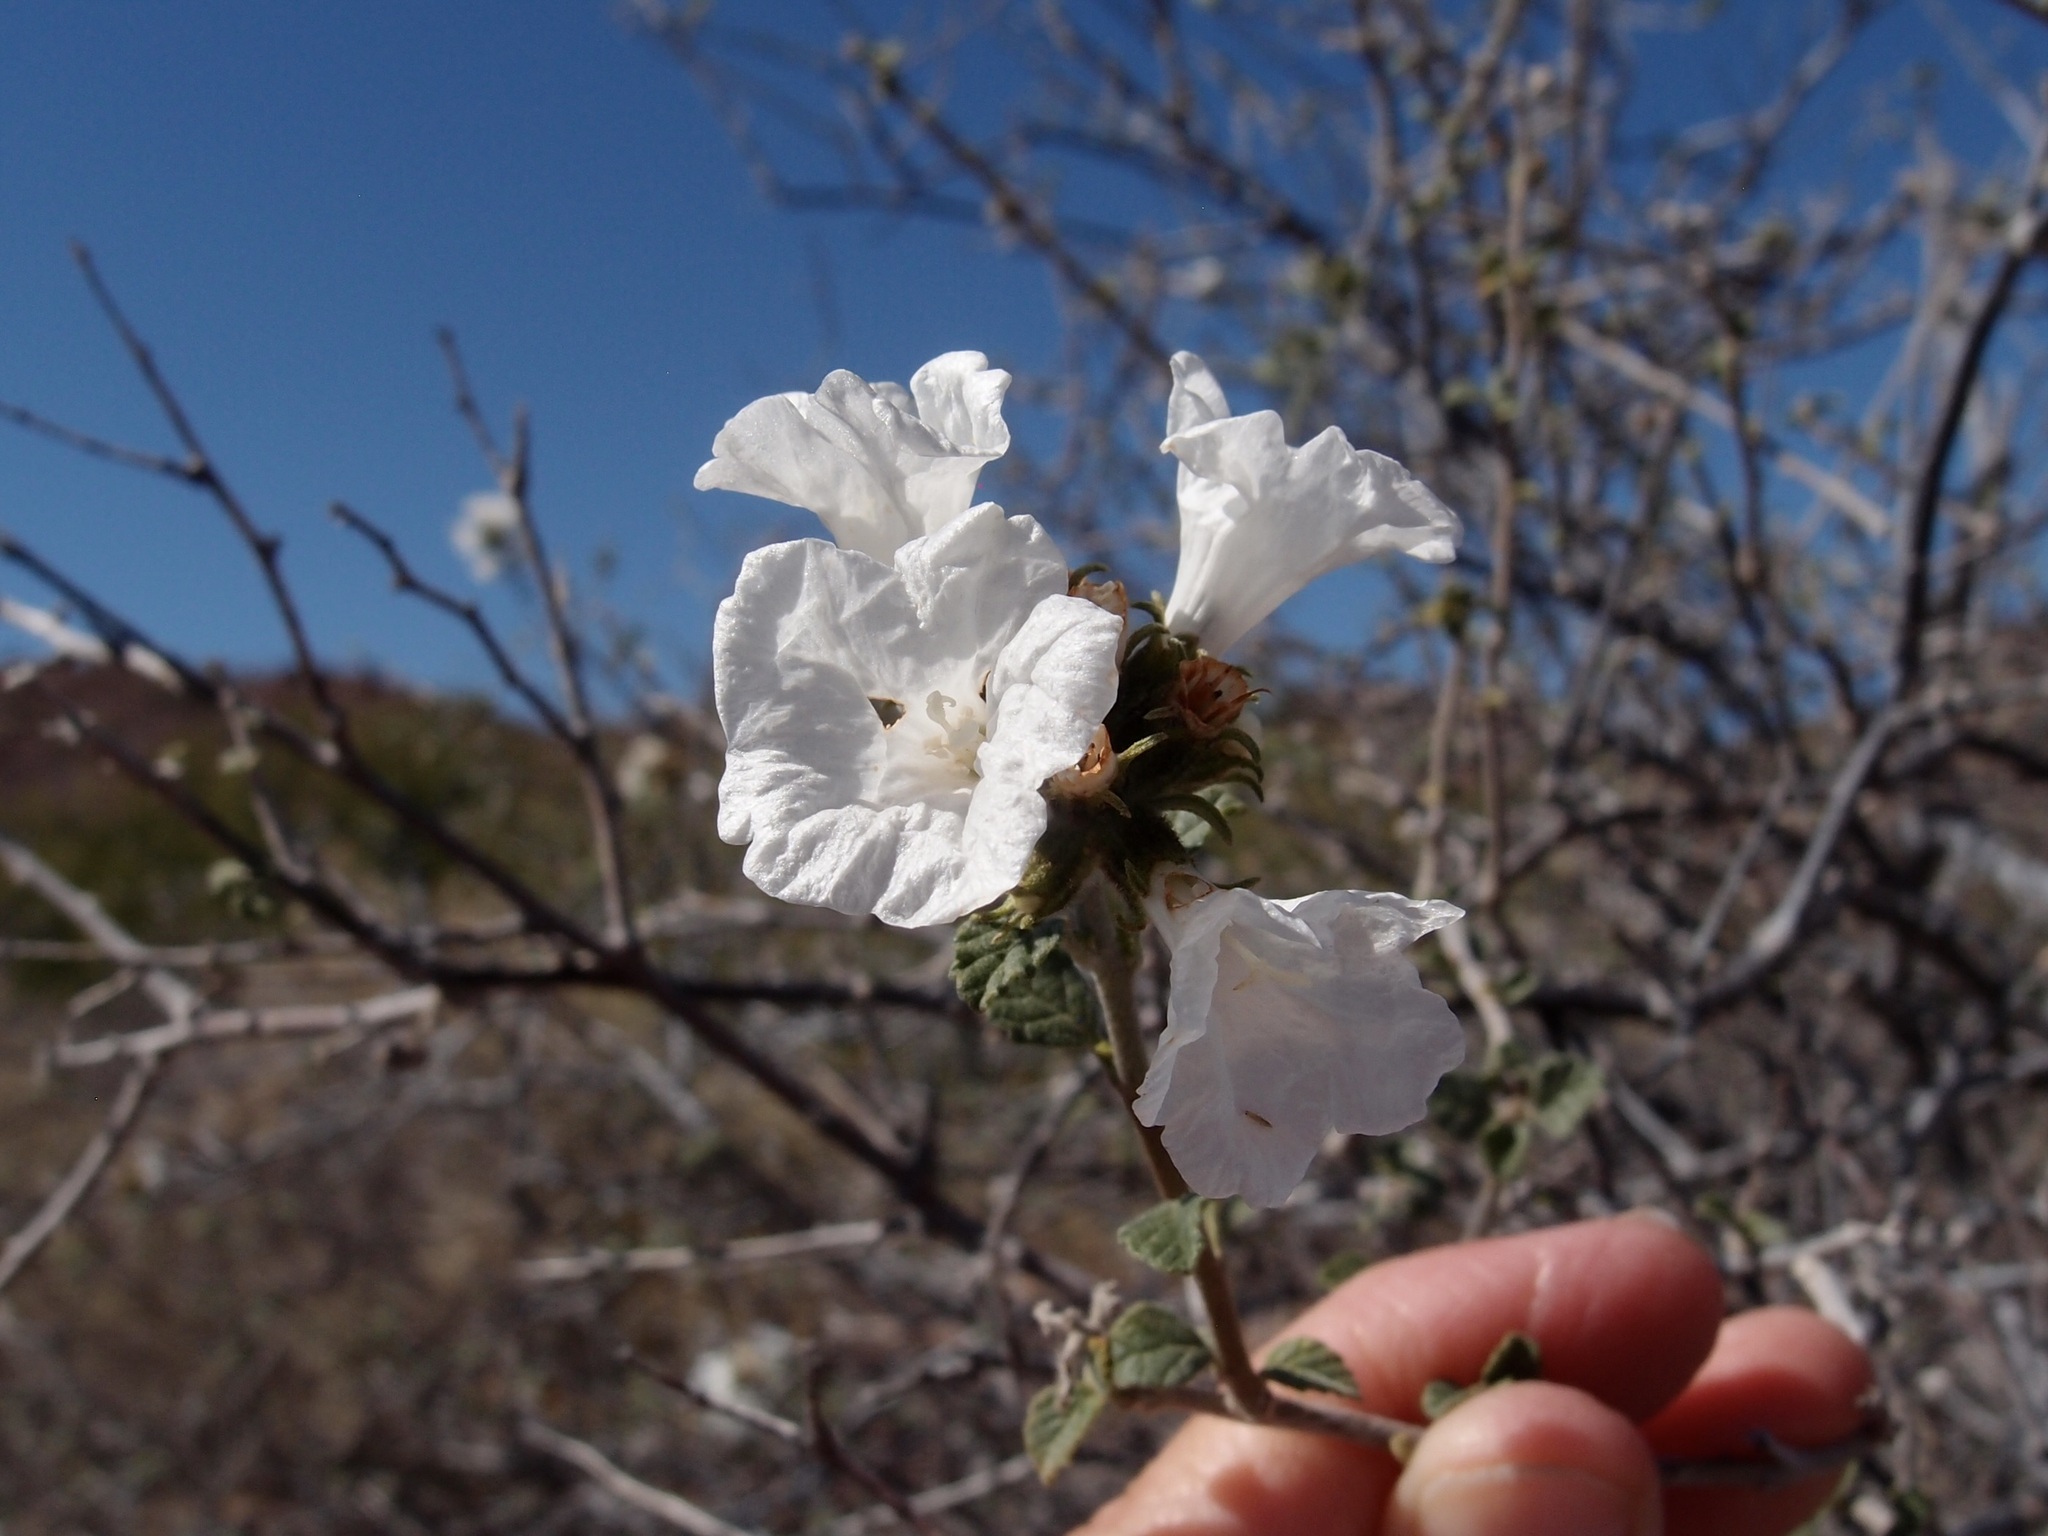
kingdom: Plantae
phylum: Tracheophyta
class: Magnoliopsida
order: Boraginales
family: Cordiaceae
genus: Cordia
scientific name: Cordia parvifolia
